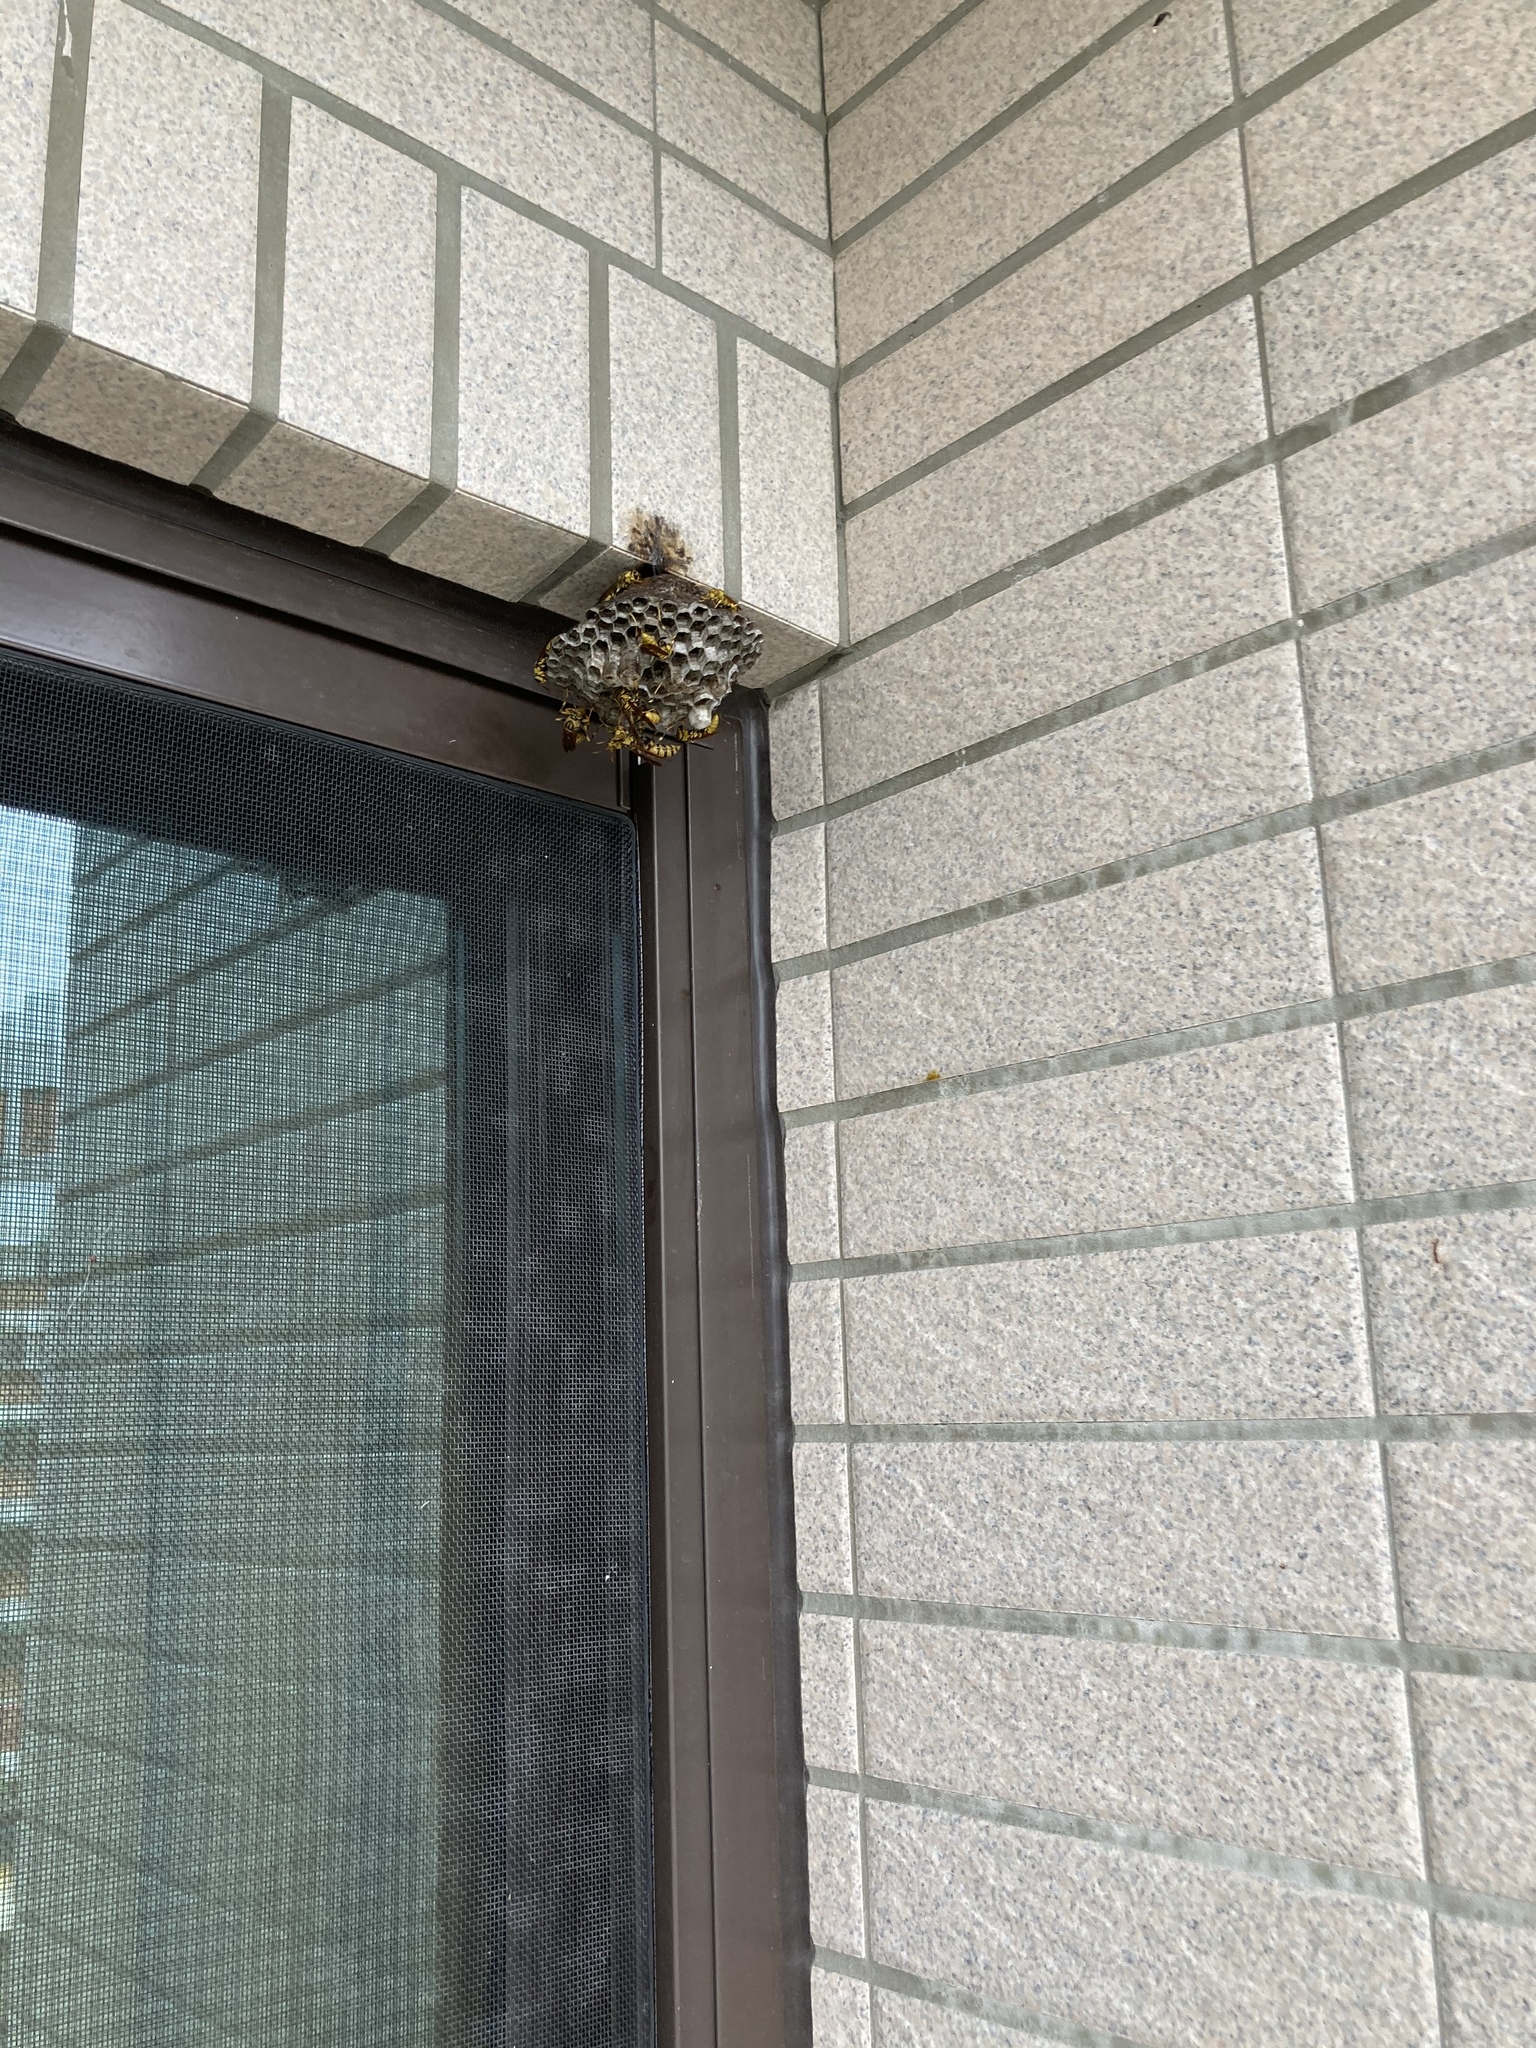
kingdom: Animalia
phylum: Arthropoda
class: Insecta
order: Hymenoptera
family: Eumenidae
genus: Polistes
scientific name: Polistes rothneyi
